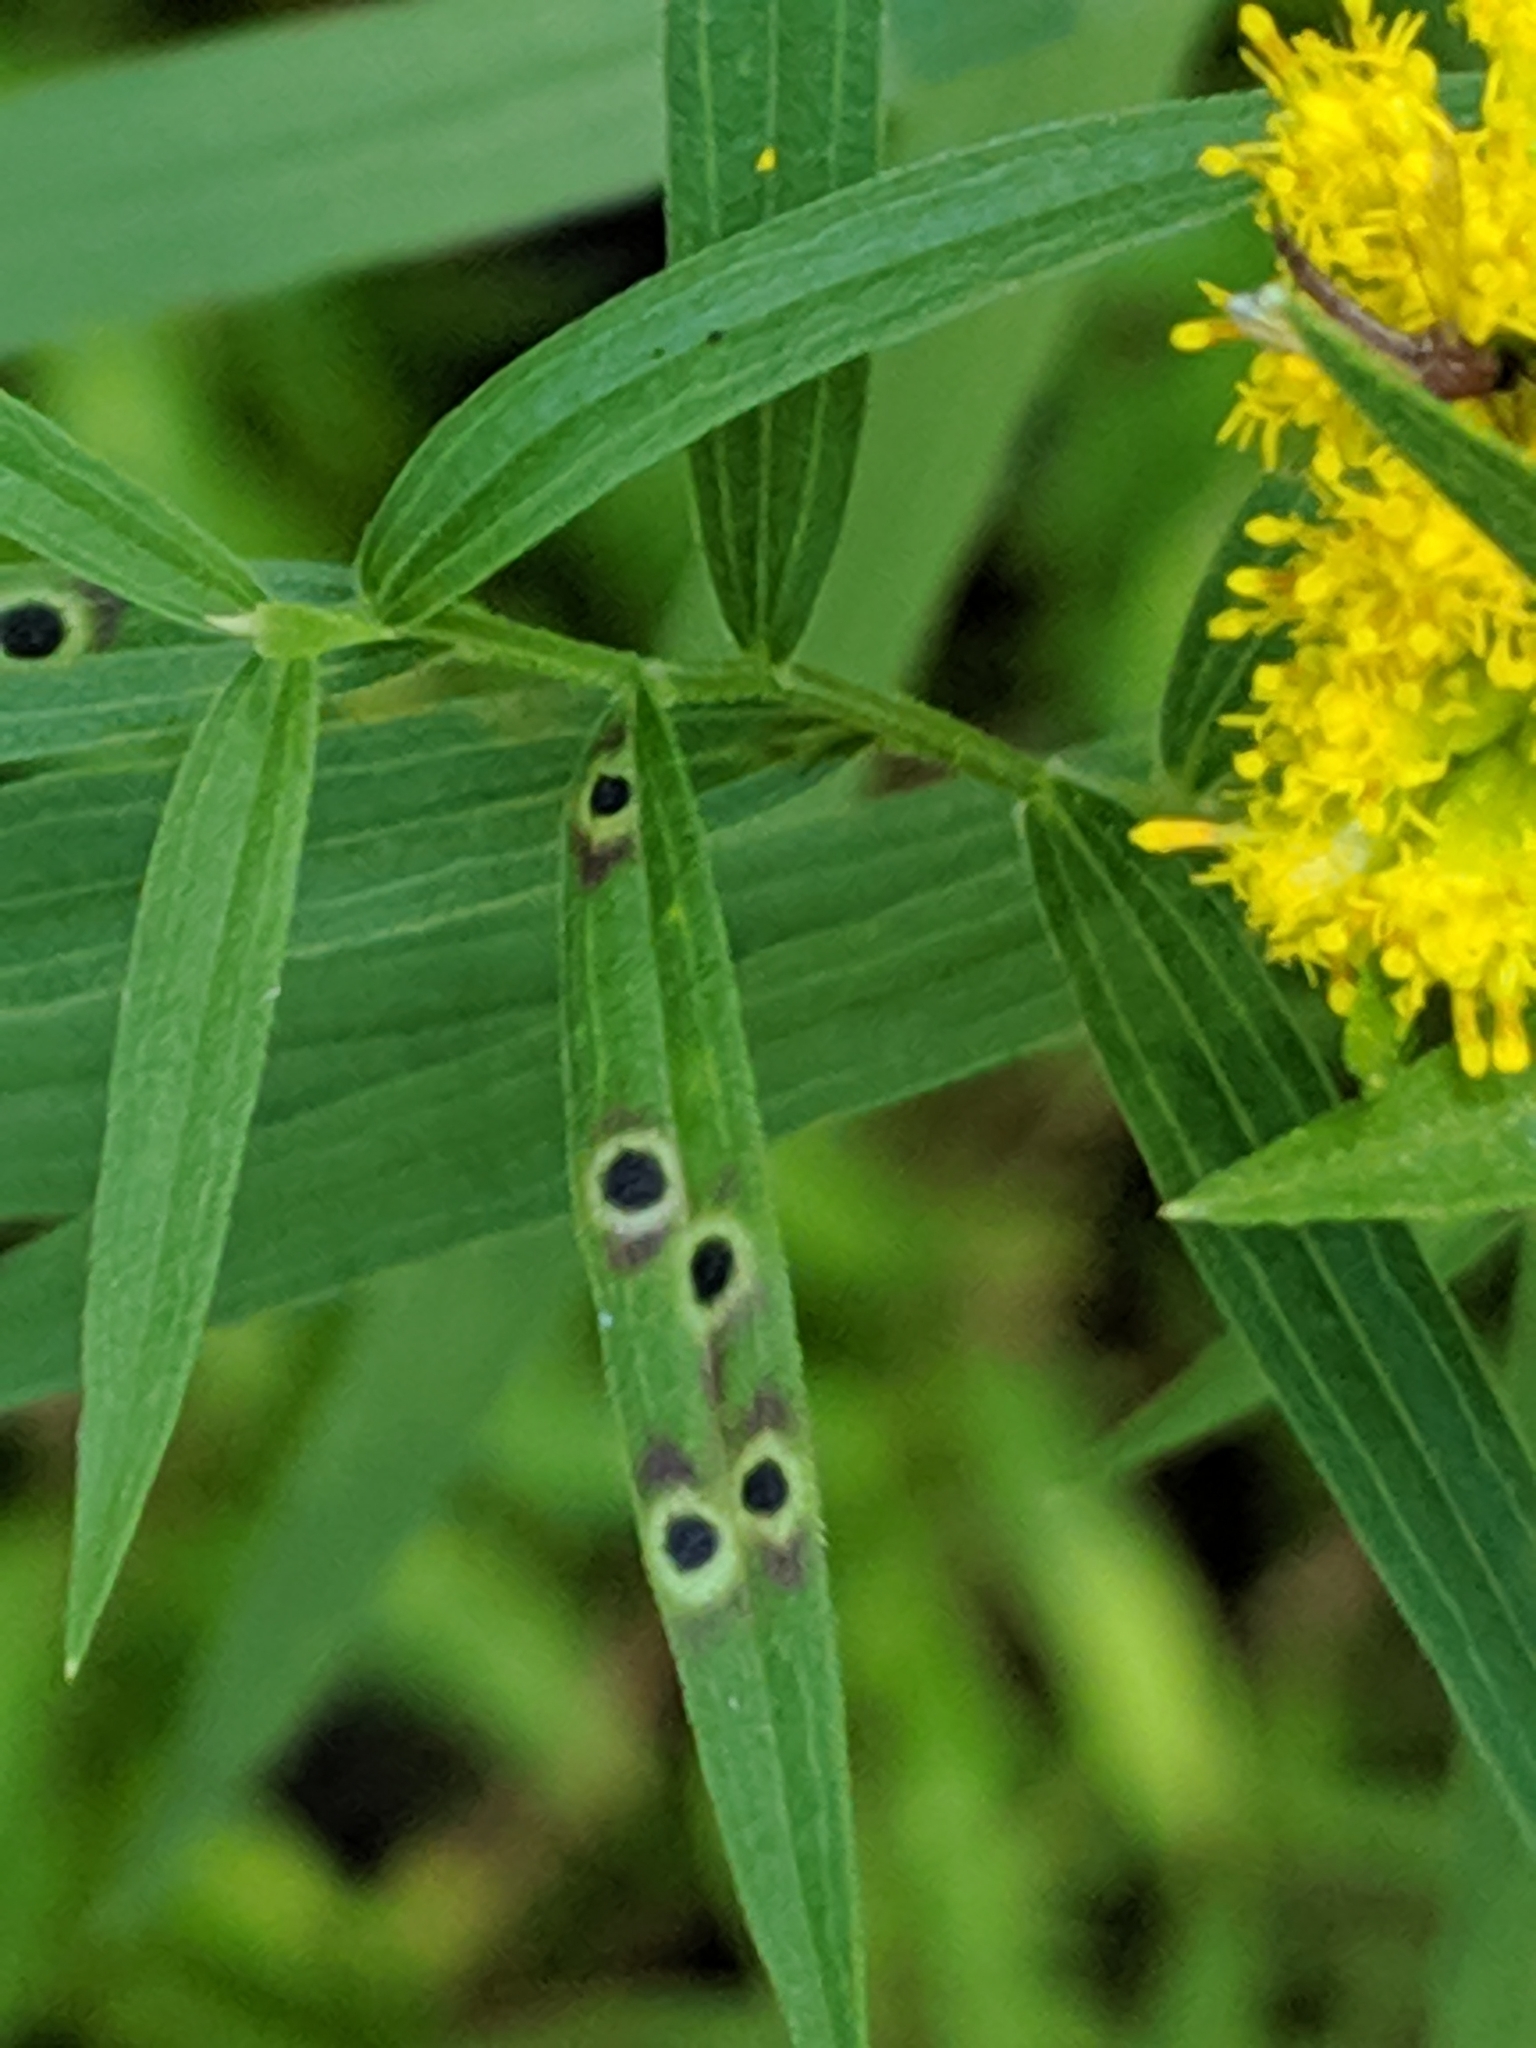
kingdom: Animalia
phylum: Arthropoda
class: Insecta
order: Diptera
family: Cecidomyiidae
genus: Asteromyia
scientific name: Asteromyia euthamiae
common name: Euthamia leaf gall midge
